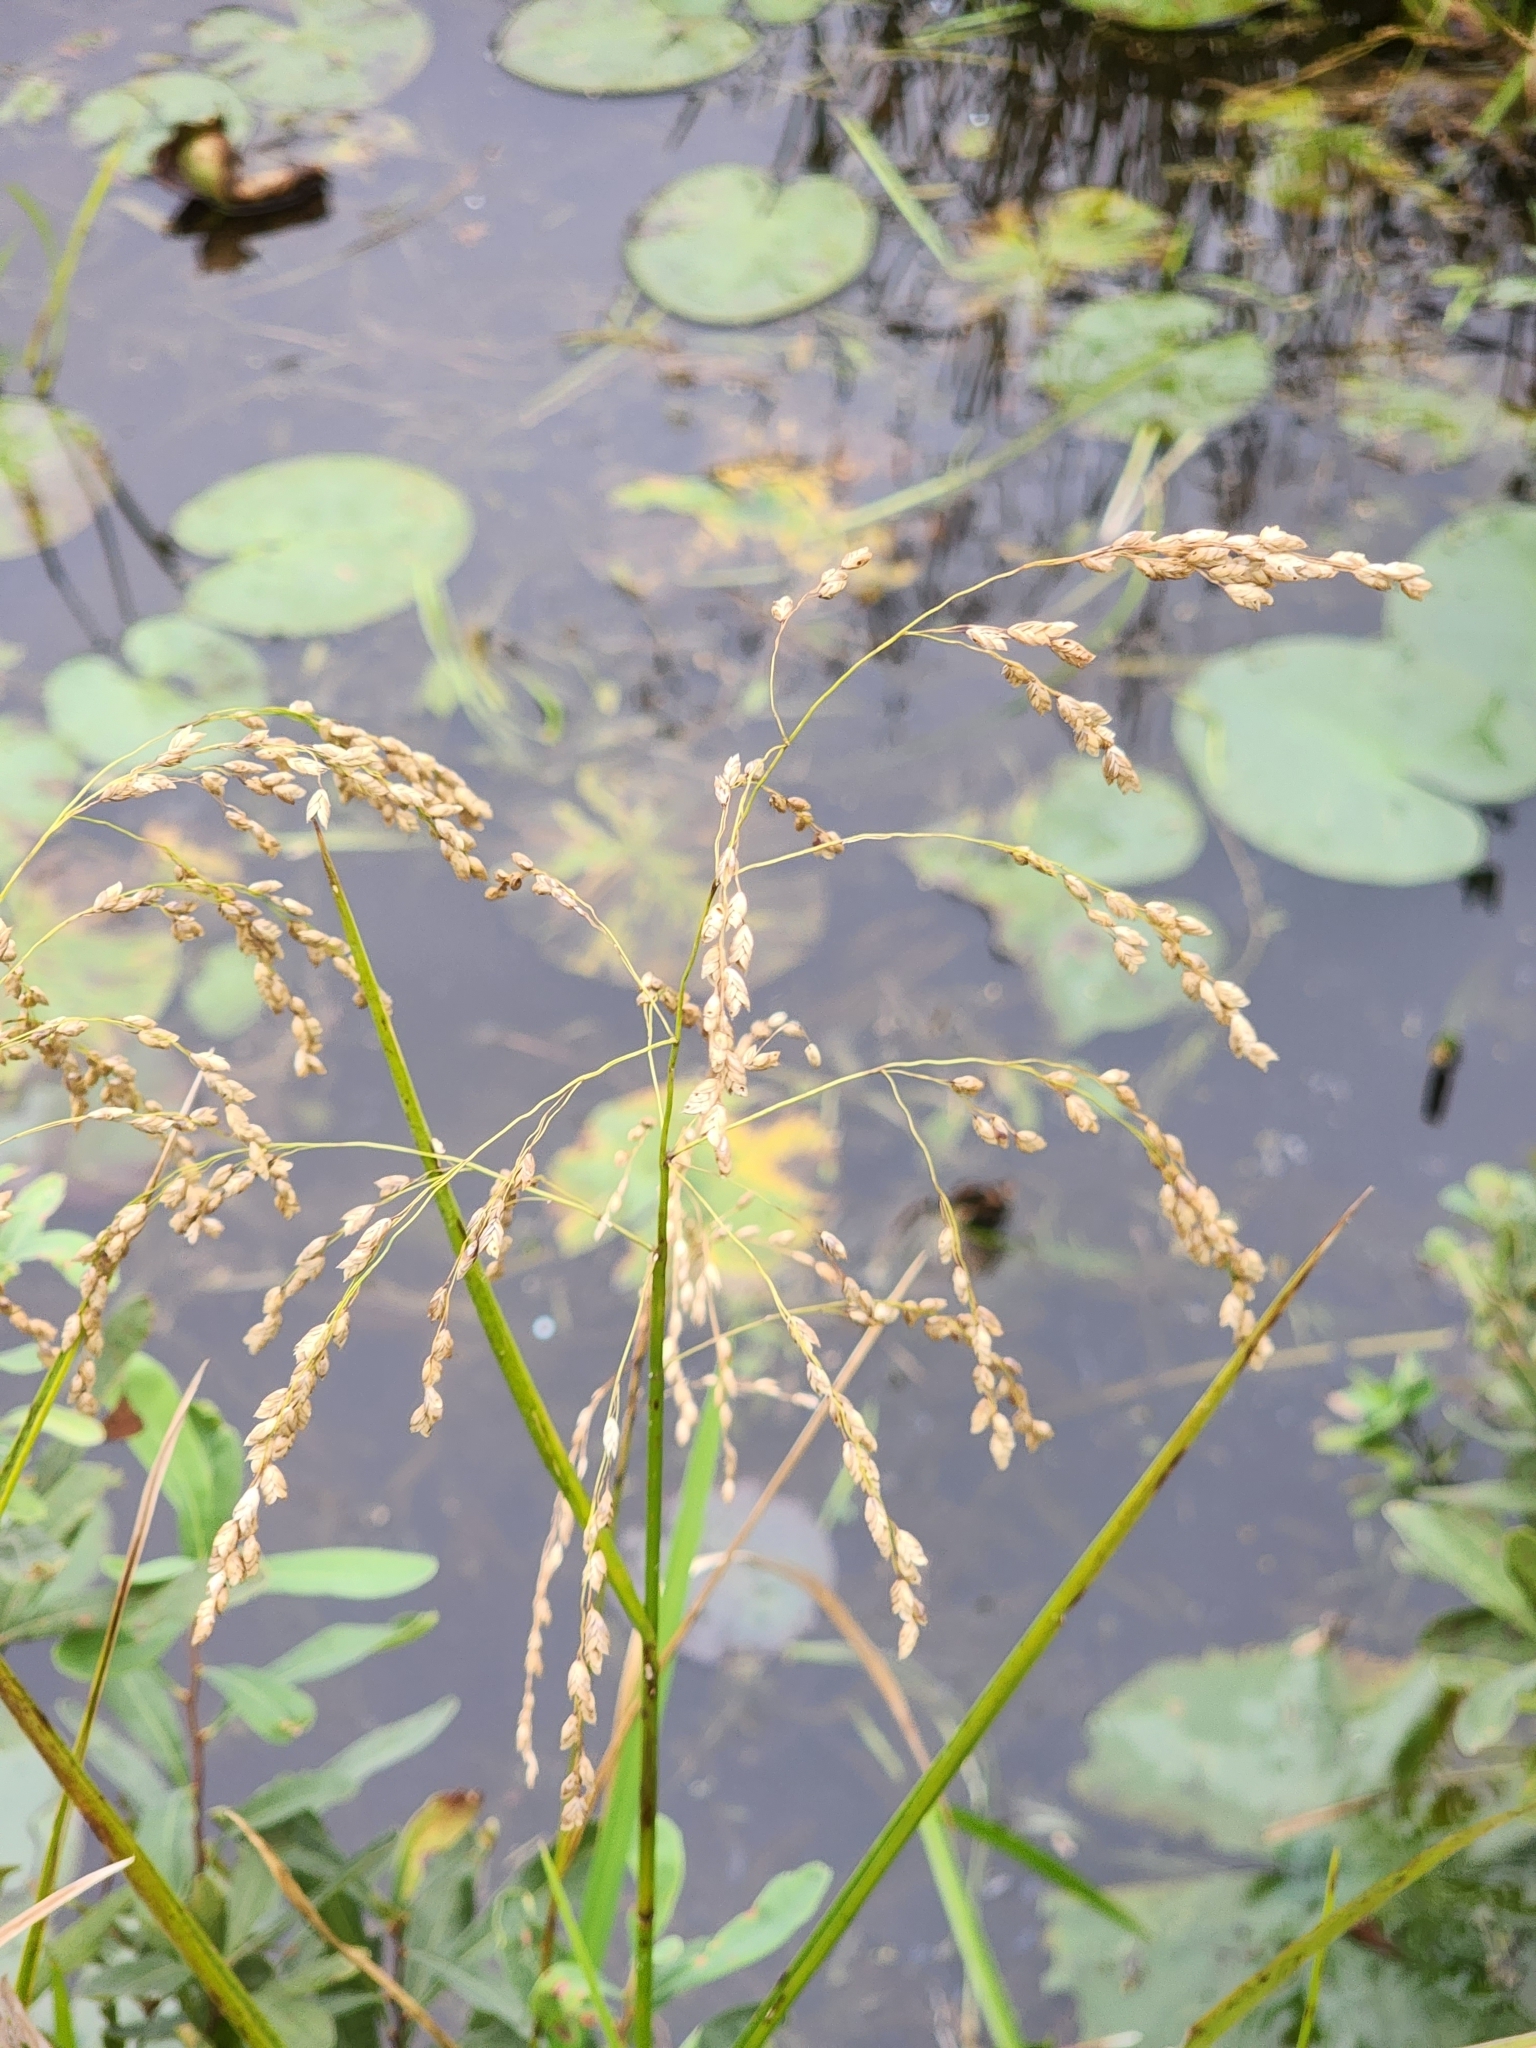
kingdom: Plantae
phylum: Tracheophyta
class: Liliopsida
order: Poales
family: Poaceae
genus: Glyceria
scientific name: Glyceria canadensis
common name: Canada mannagrass
